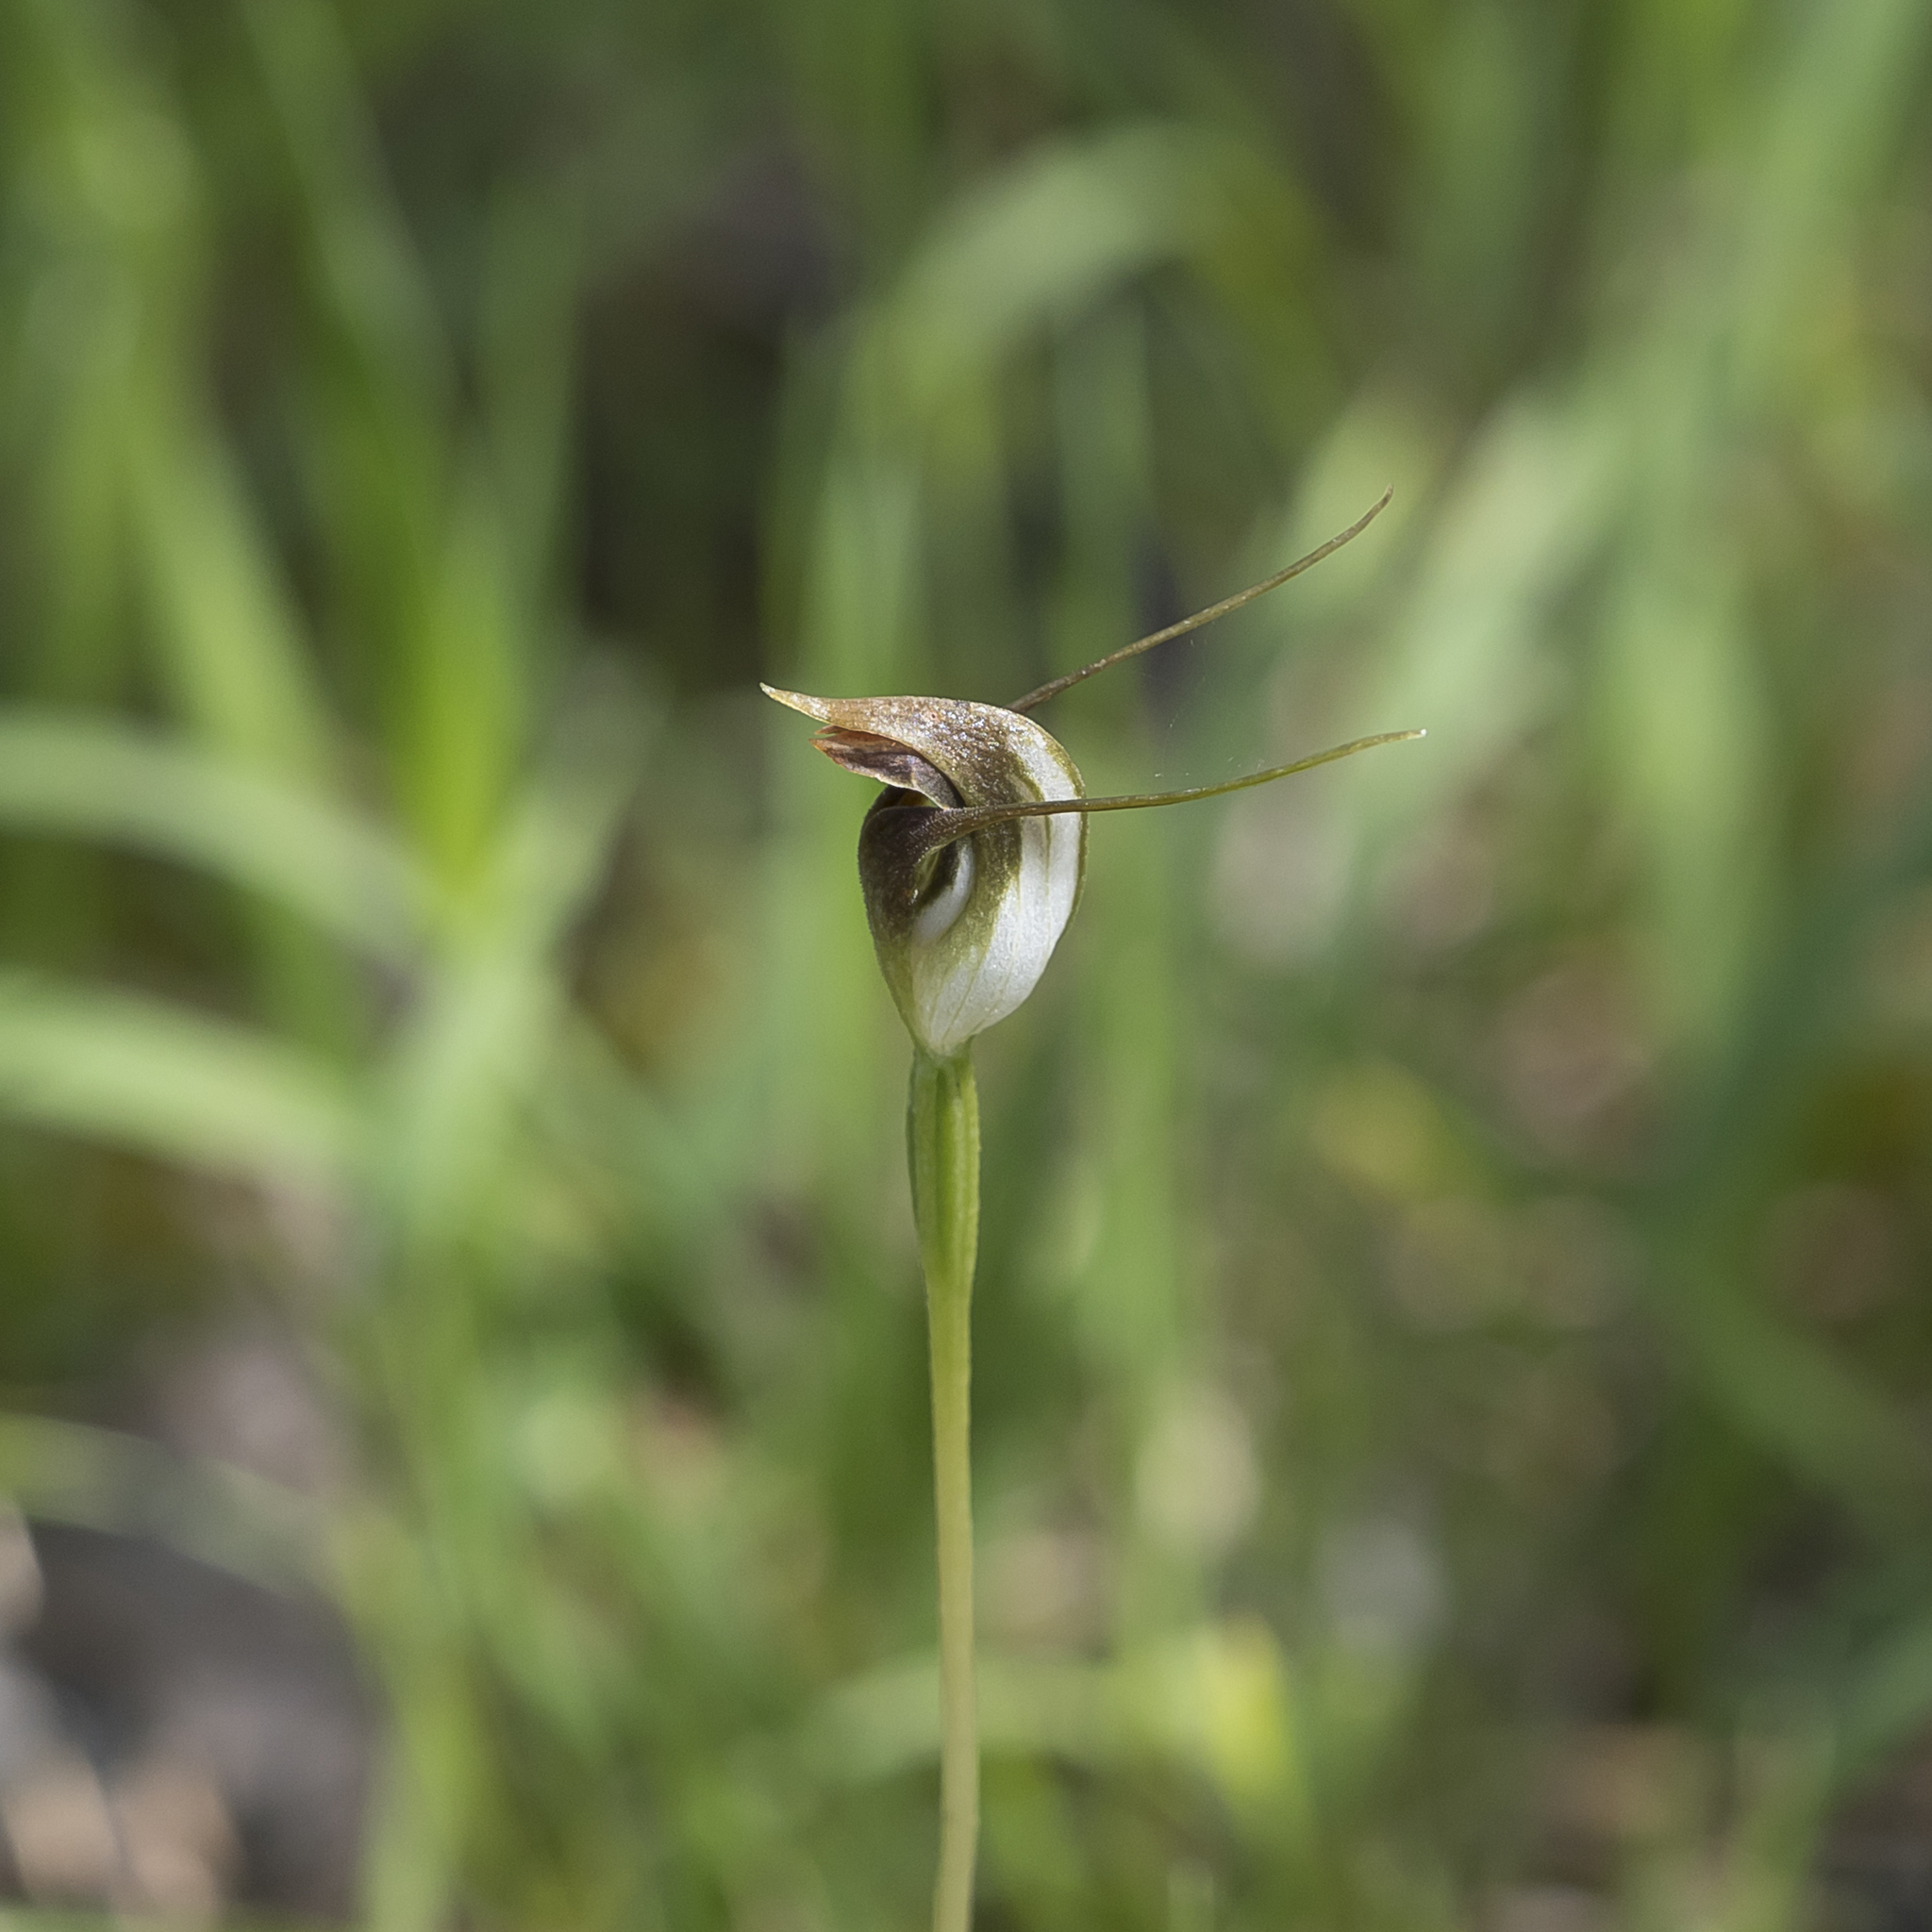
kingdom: Plantae
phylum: Tracheophyta
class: Liliopsida
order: Asparagales
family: Orchidaceae
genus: Pterostylis
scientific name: Pterostylis pedunculata
